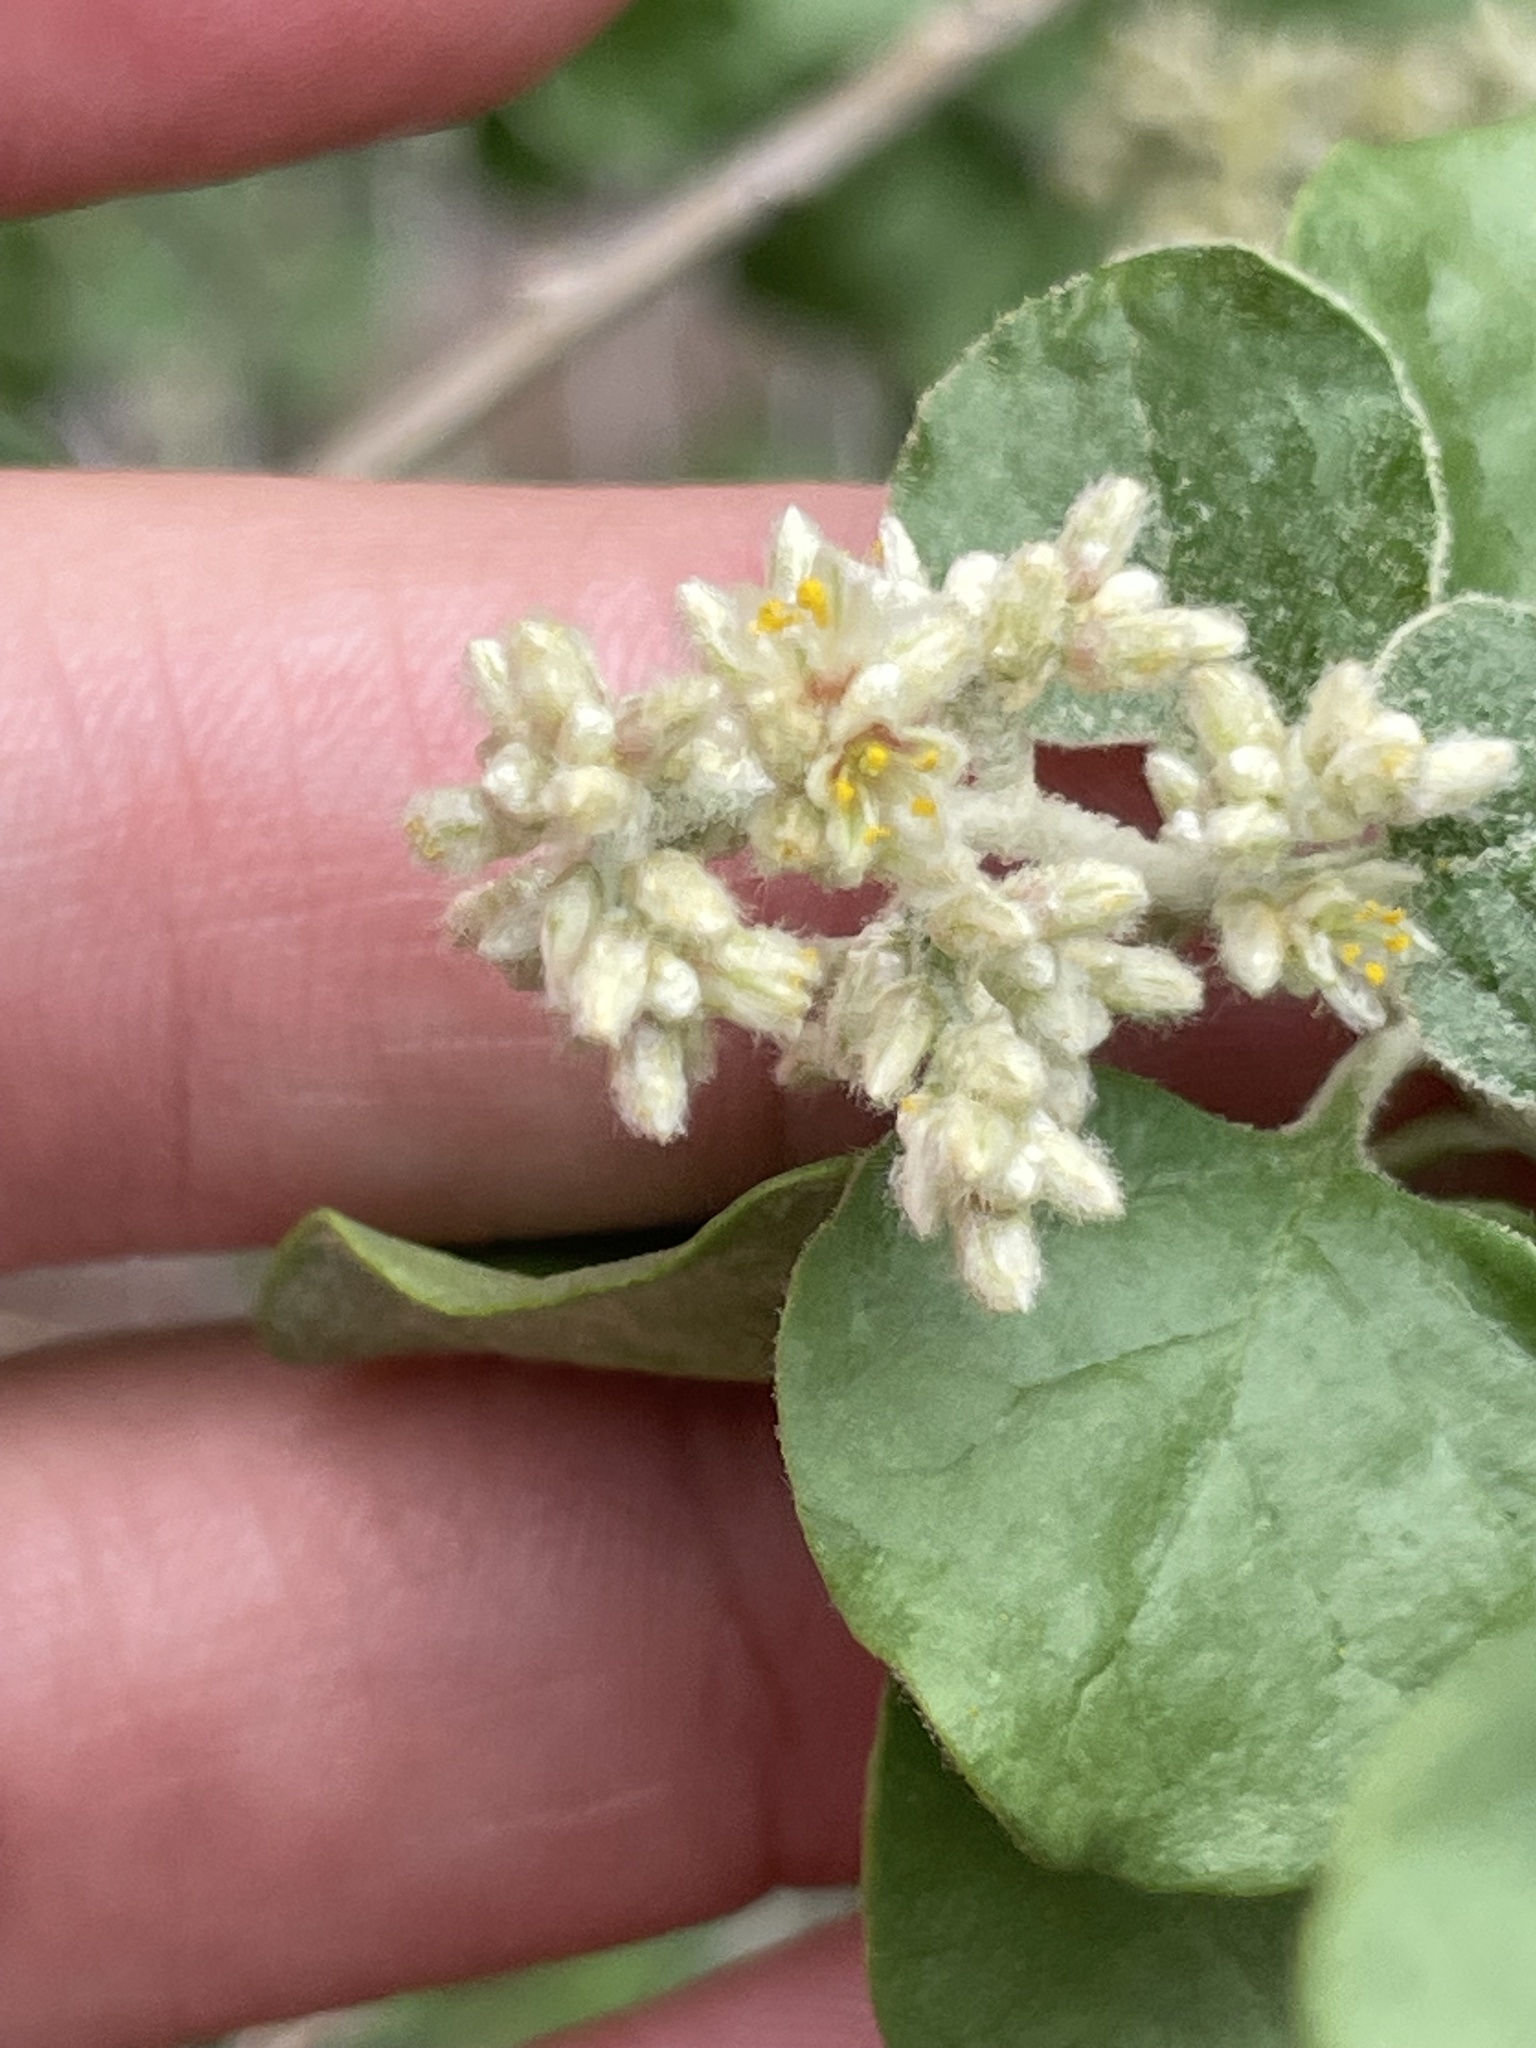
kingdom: Plantae
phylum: Tracheophyta
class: Magnoliopsida
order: Caryophyllales
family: Amaranthaceae
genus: Iresine
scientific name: Iresine alternifolia
